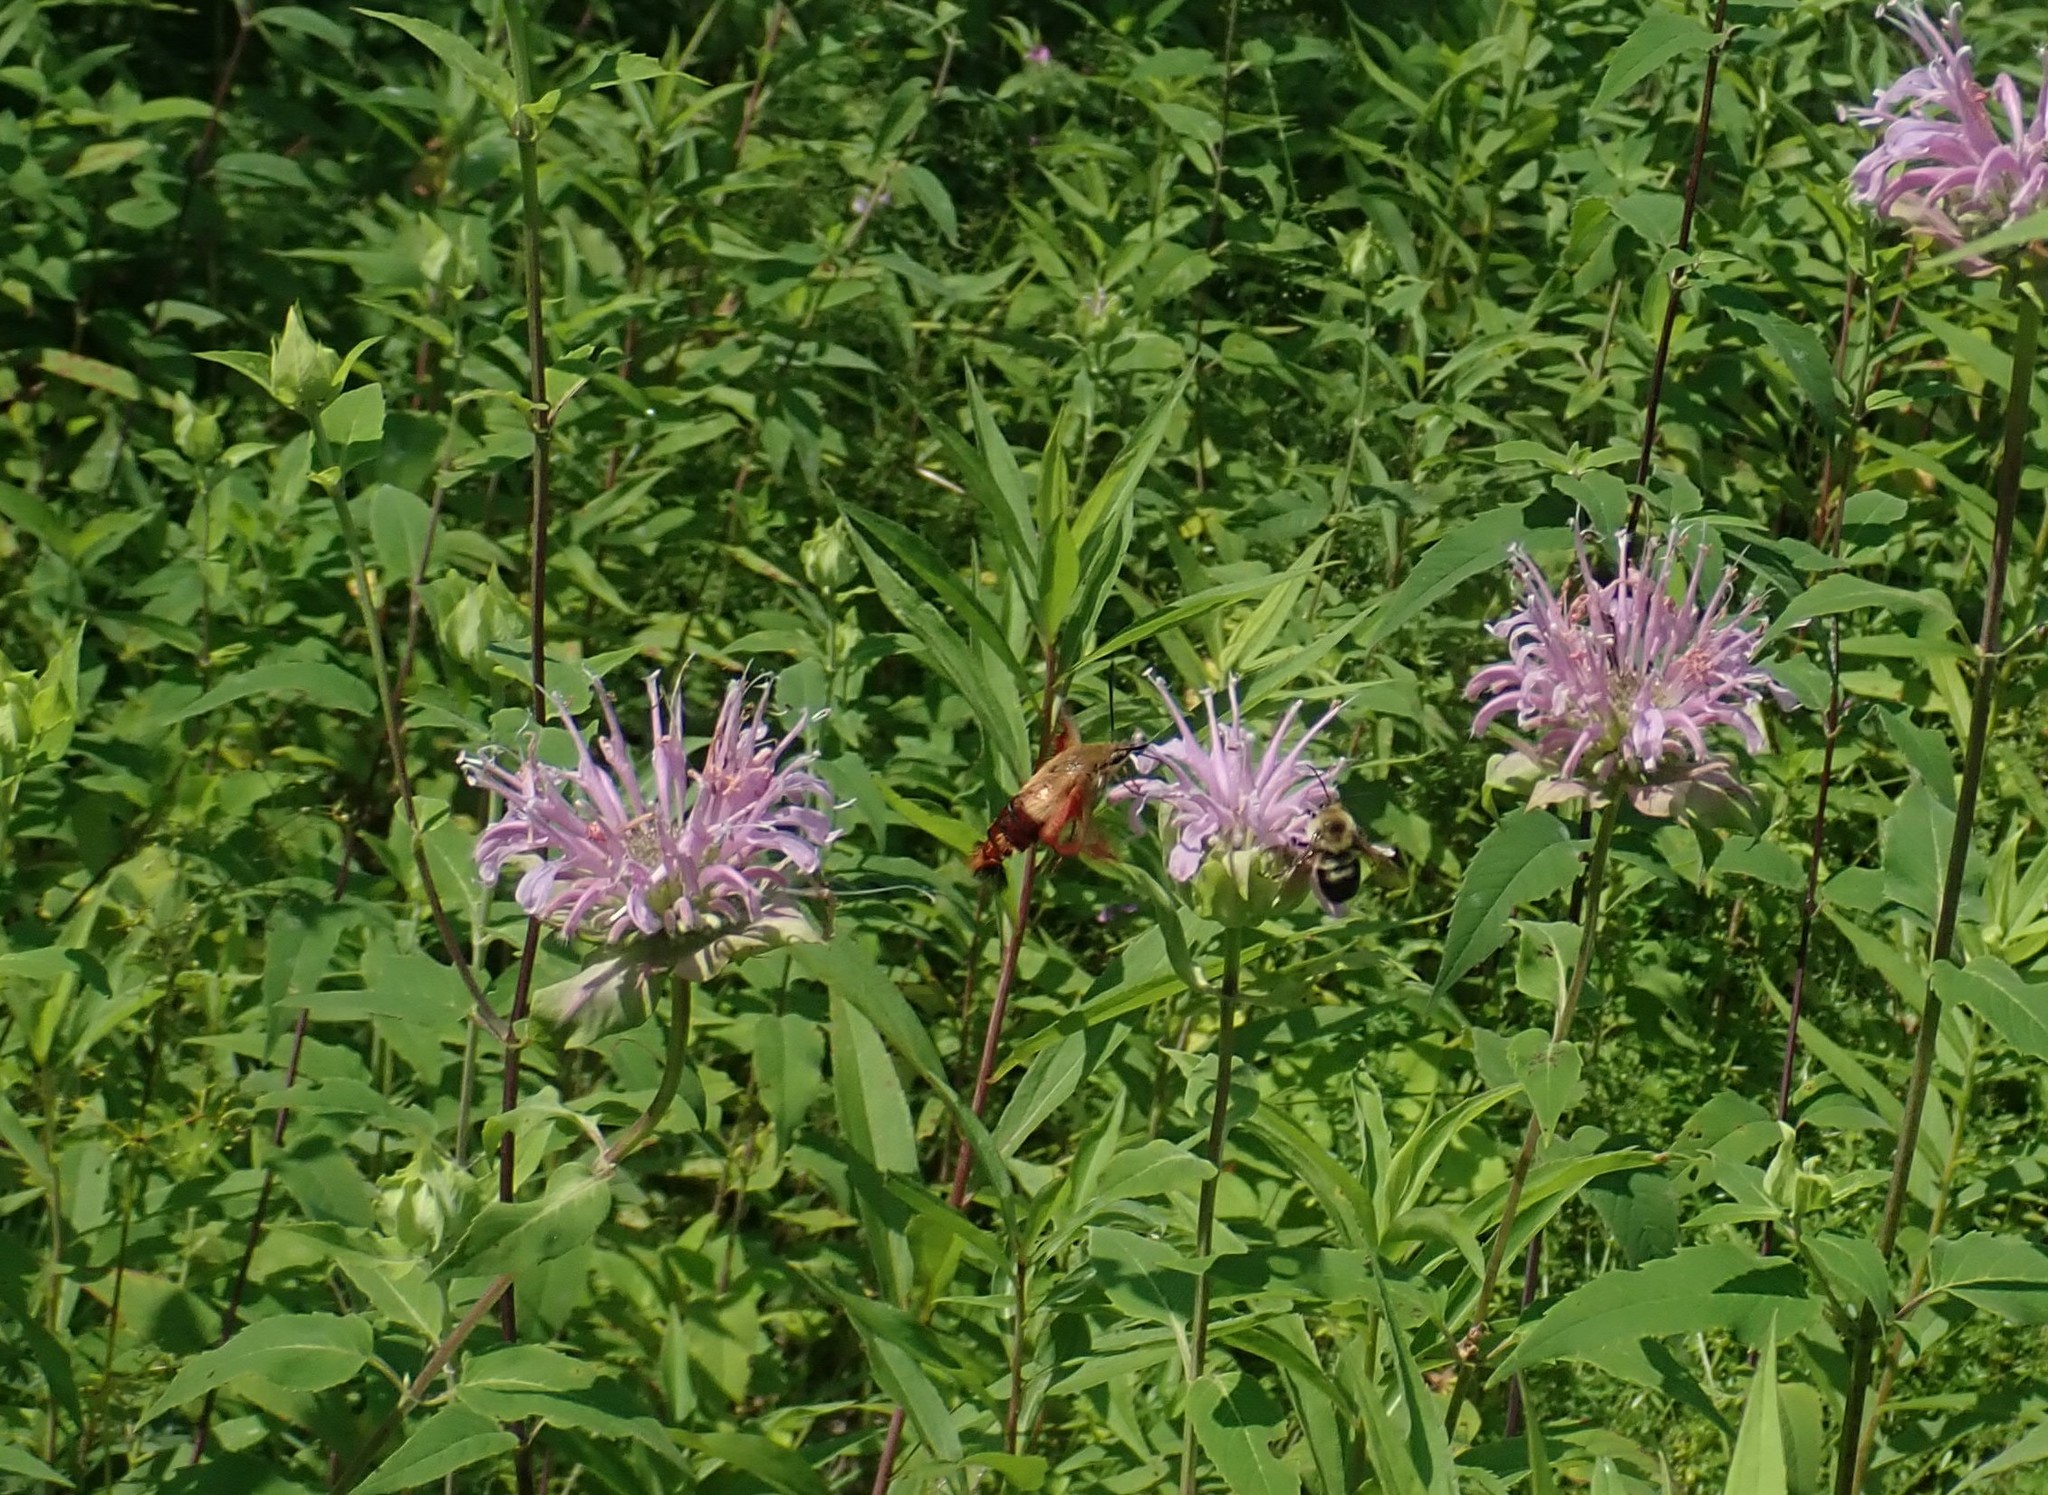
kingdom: Animalia
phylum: Arthropoda
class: Insecta
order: Lepidoptera
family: Sphingidae
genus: Hemaris
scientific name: Hemaris thysbe
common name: Common clear-wing
